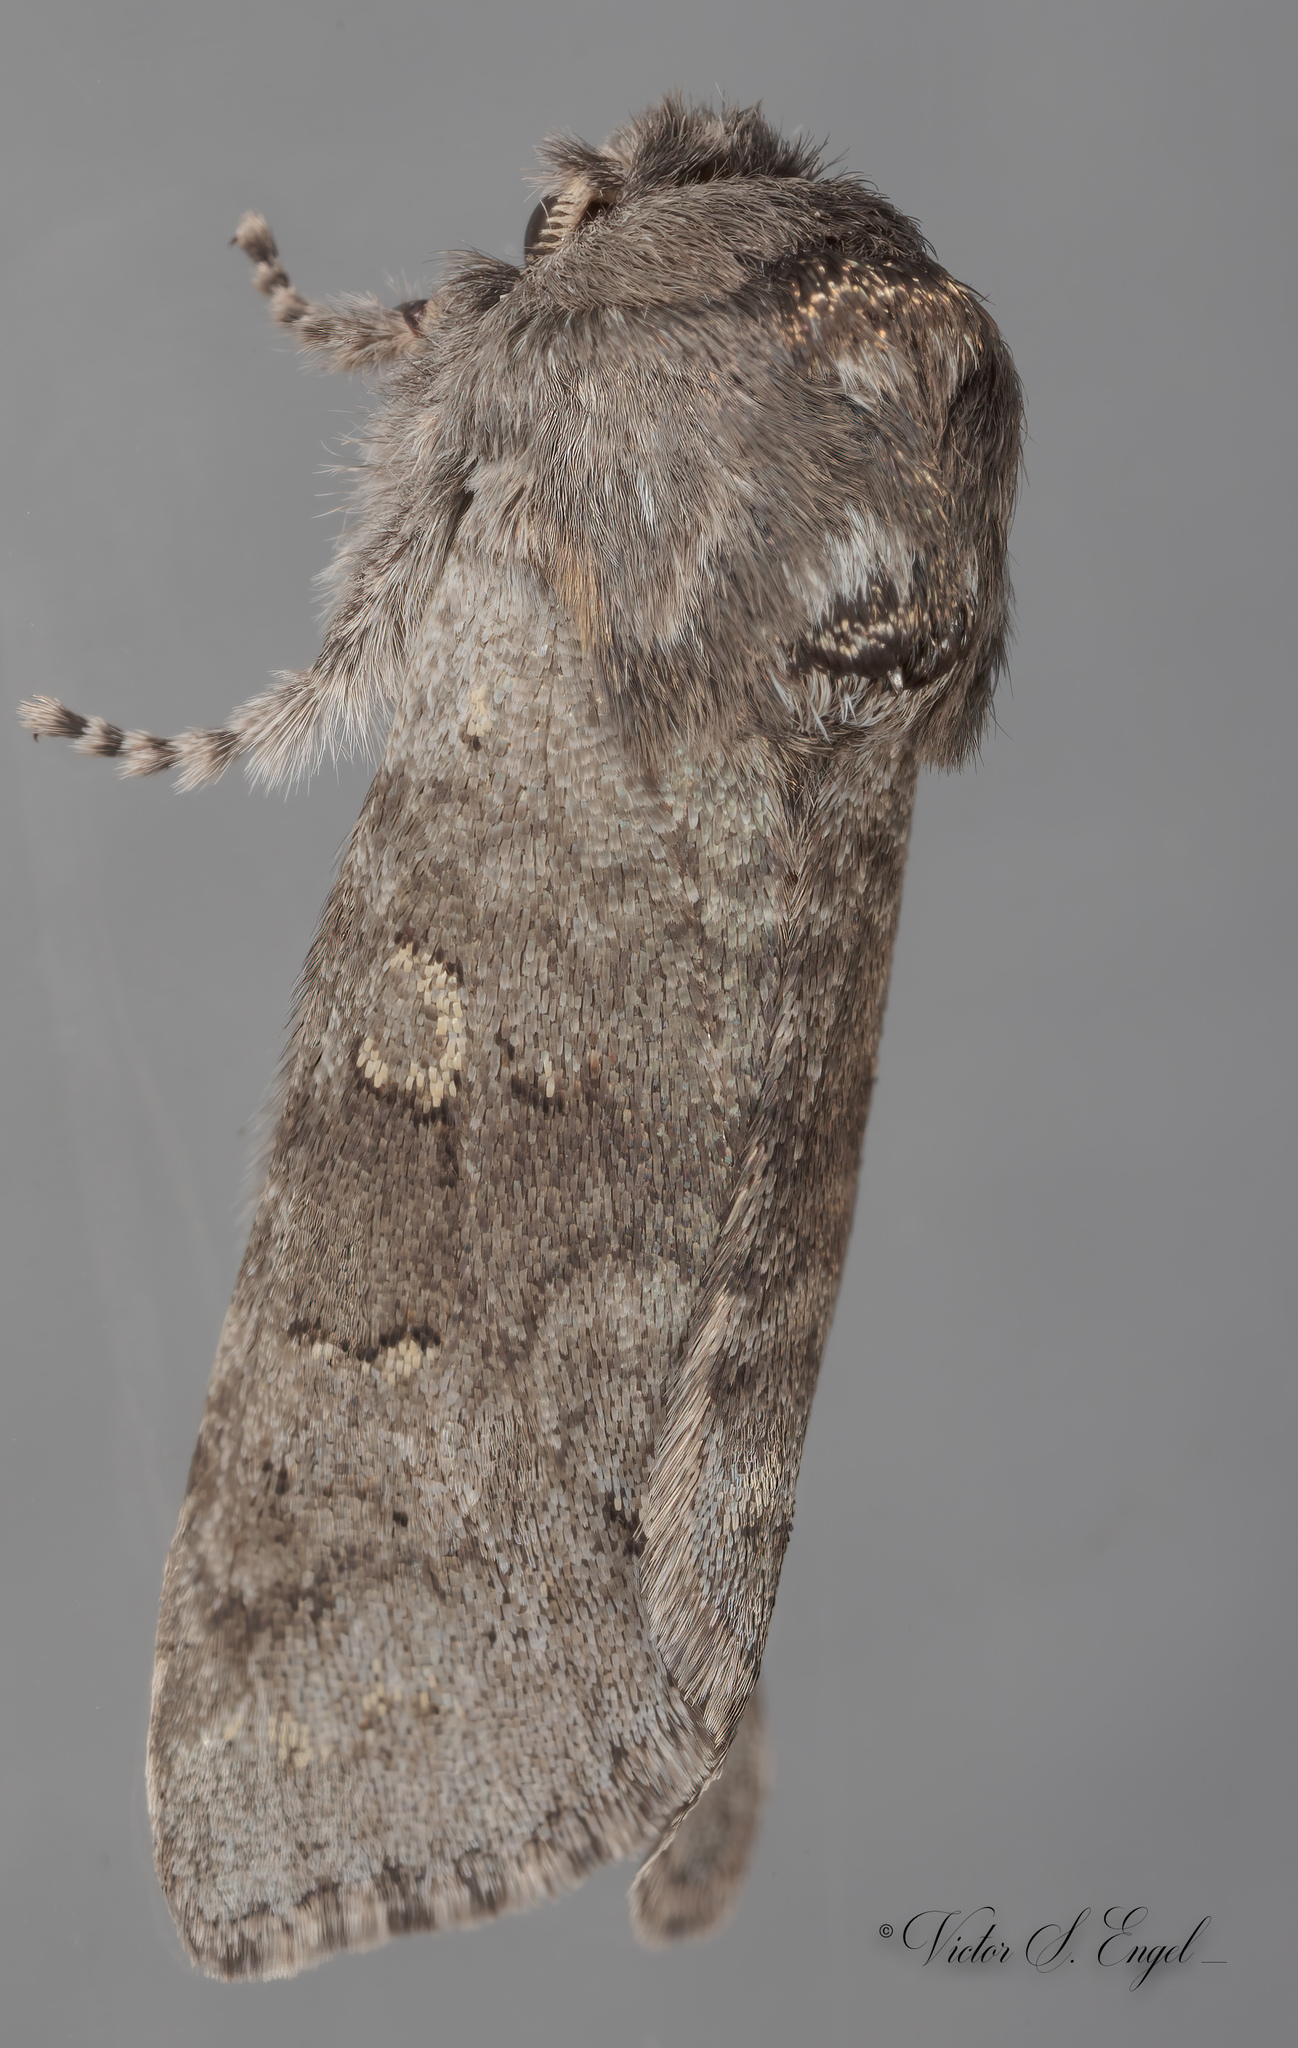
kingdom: Animalia
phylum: Arthropoda
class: Insecta
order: Lepidoptera
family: Noctuidae
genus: Psaphida
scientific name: Psaphida rolandi
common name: Roland's sallow
